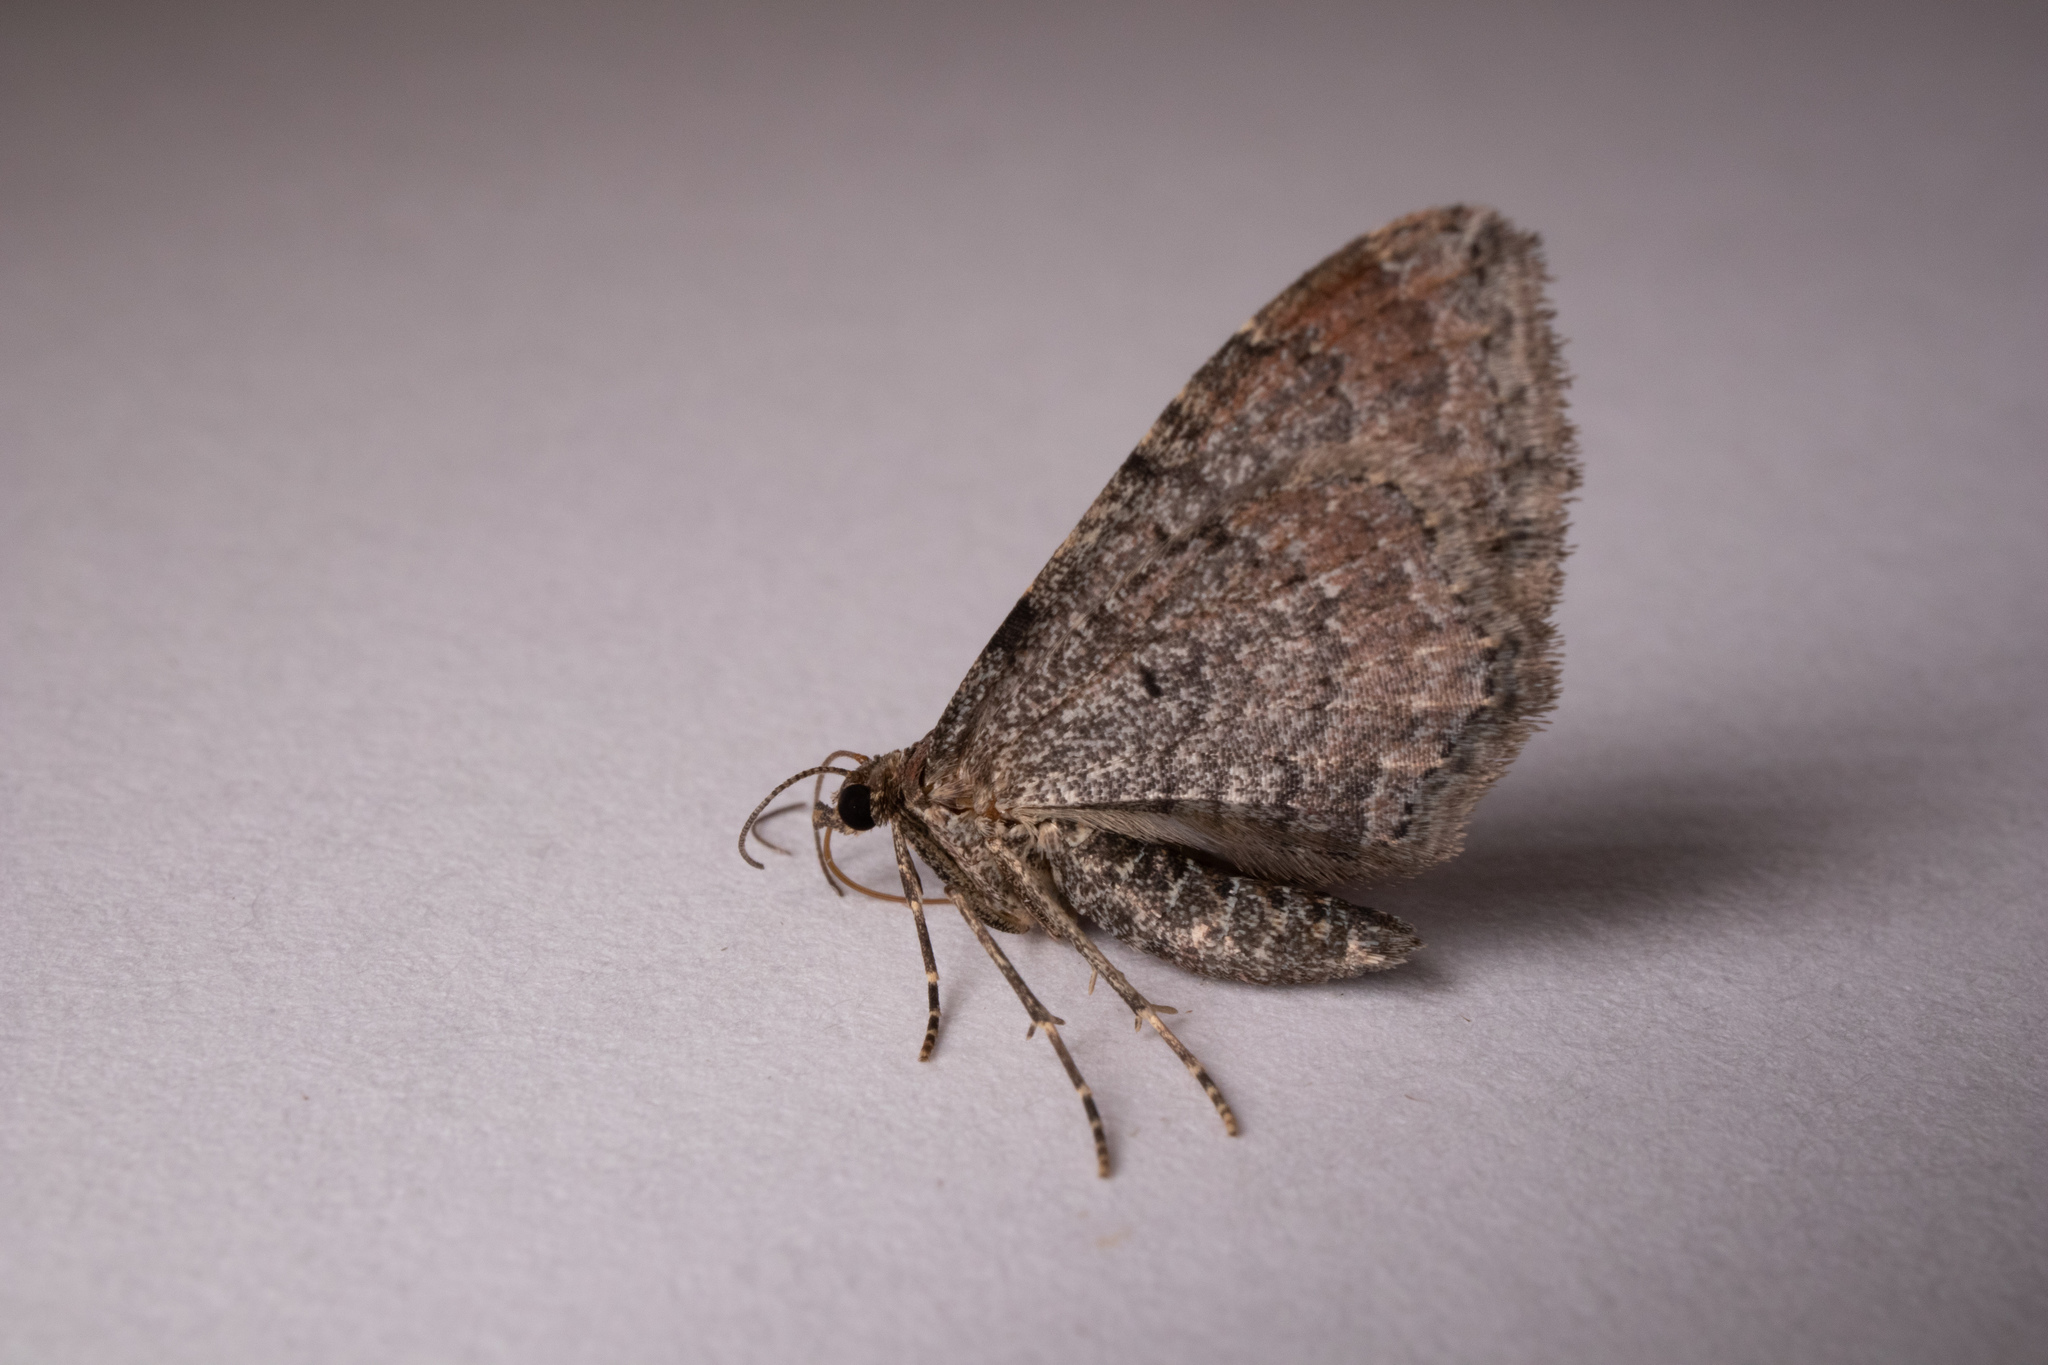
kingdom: Animalia
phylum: Arthropoda
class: Insecta
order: Lepidoptera
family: Geometridae
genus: Orthonama
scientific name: Orthonama obstipata
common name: The gem
